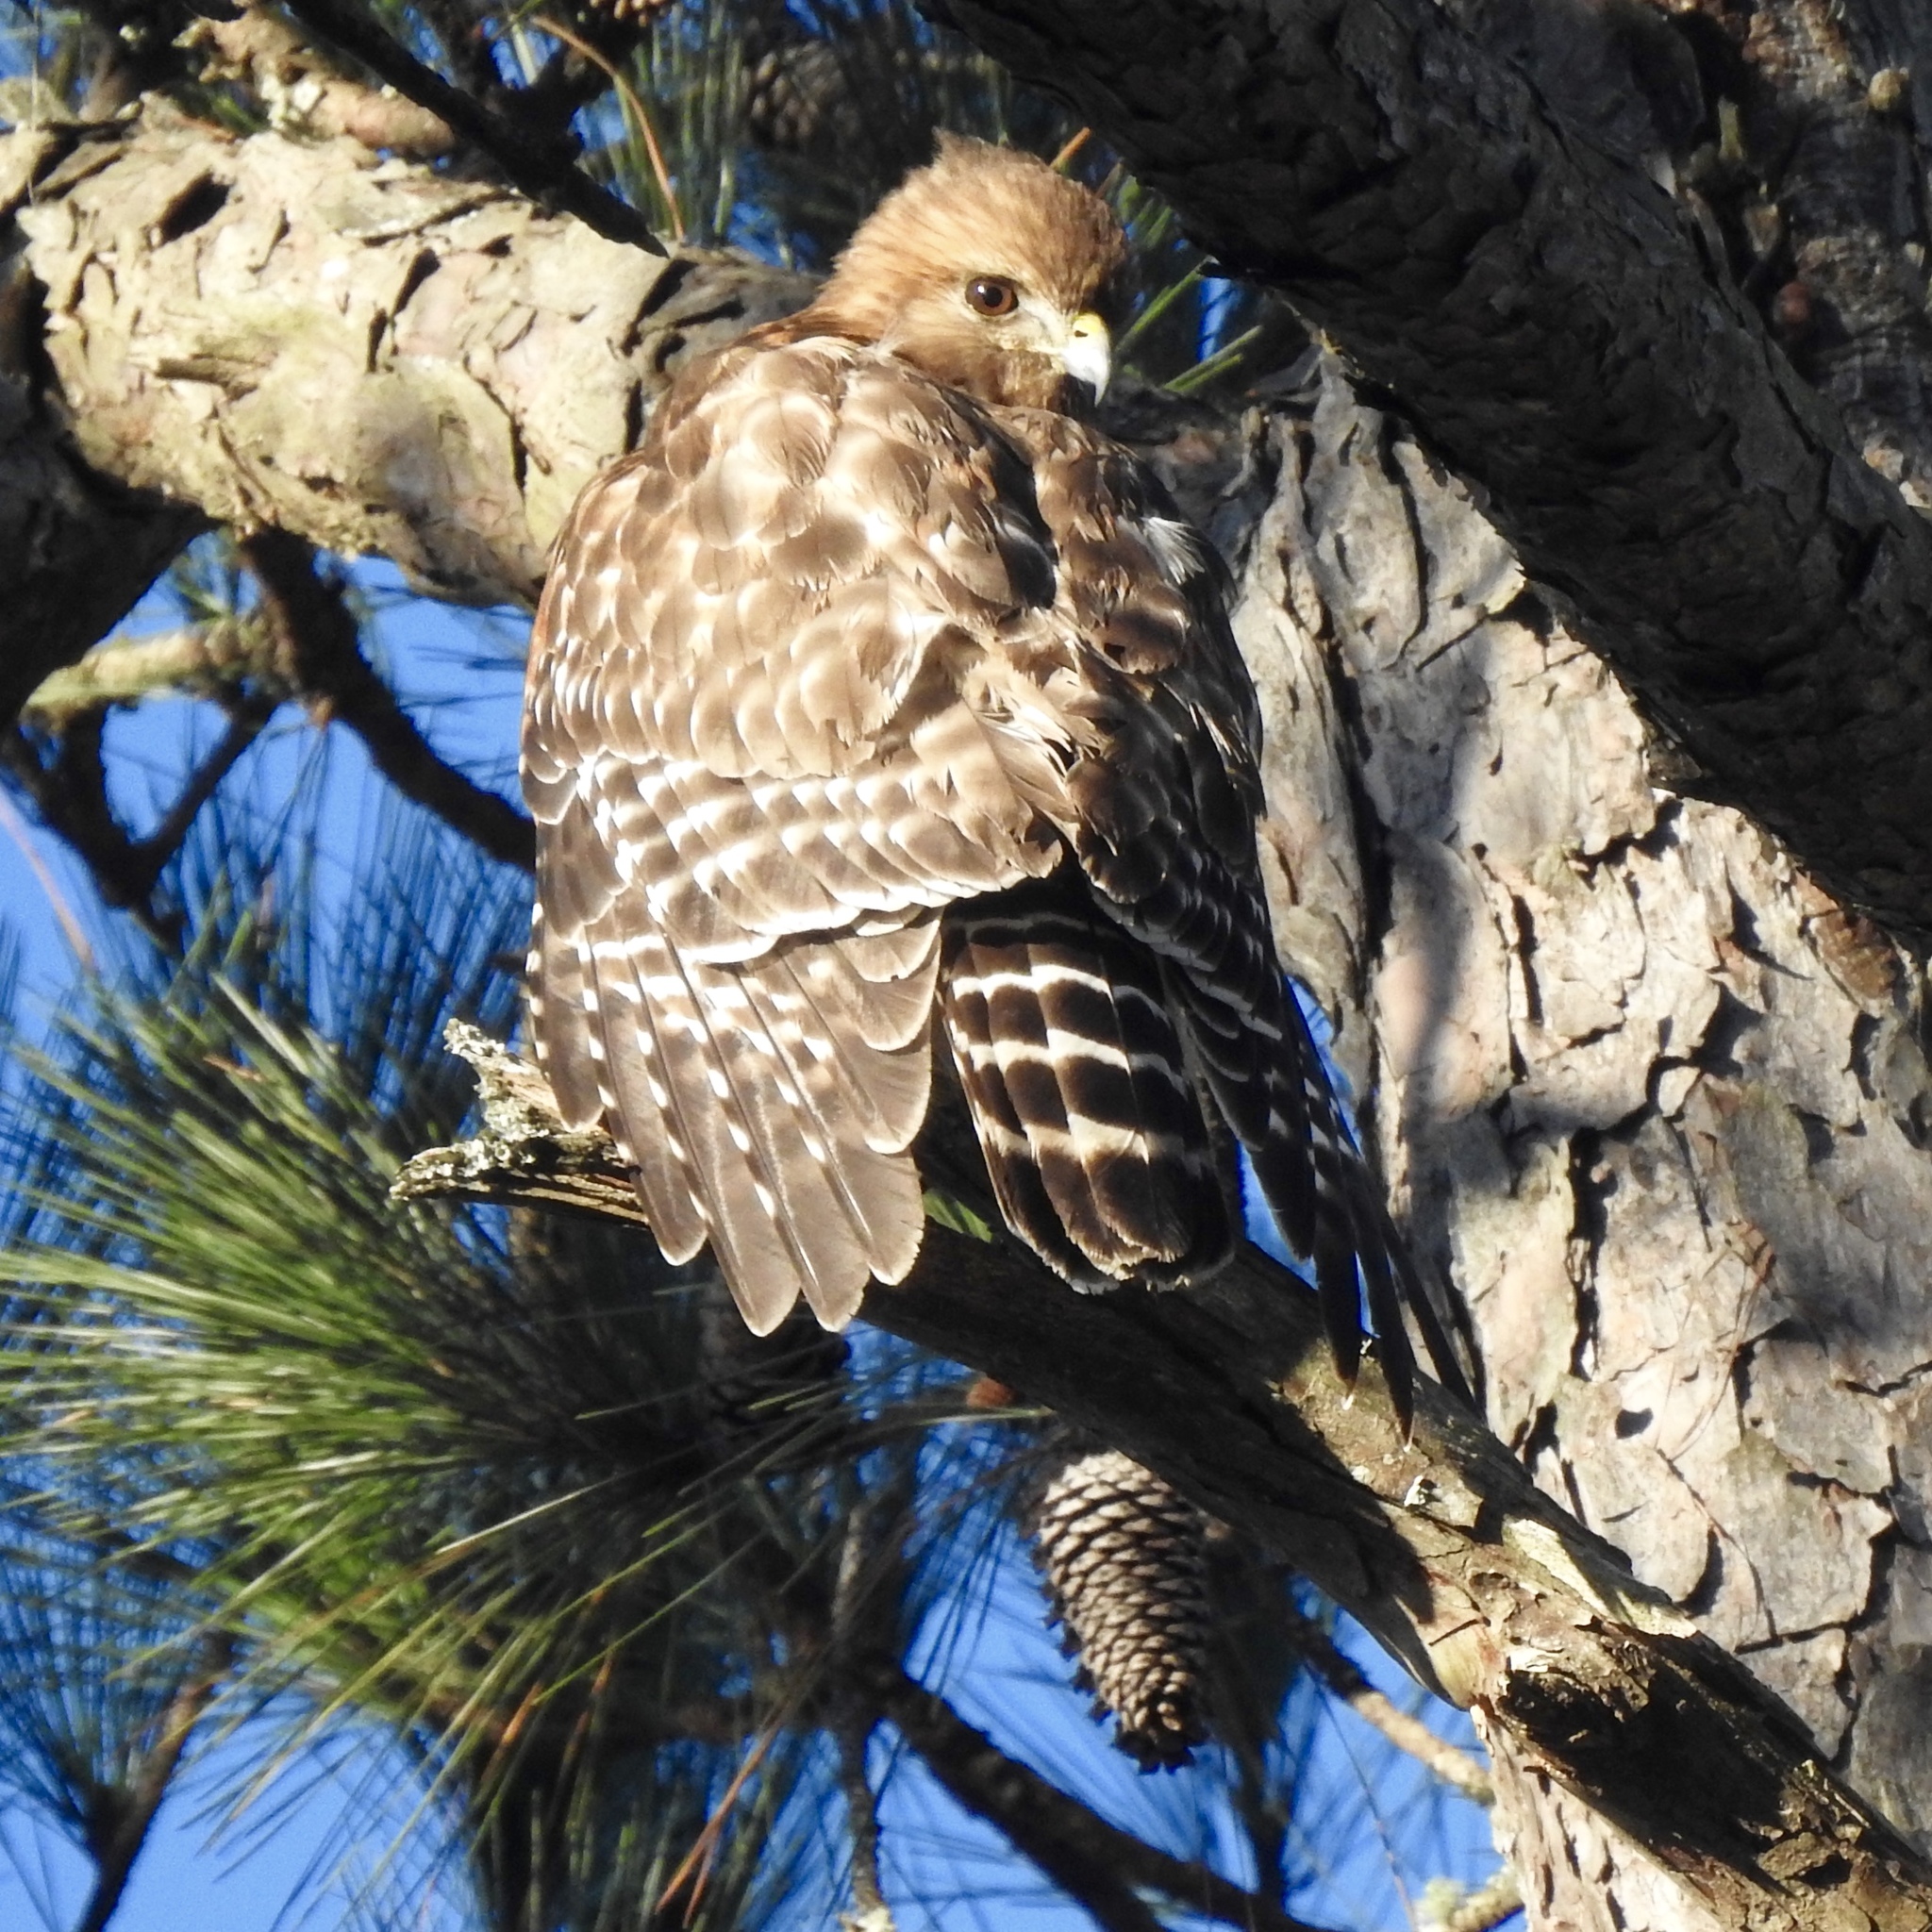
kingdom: Animalia
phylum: Chordata
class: Aves
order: Accipitriformes
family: Accipitridae
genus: Buteo
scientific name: Buteo lineatus
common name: Red-shouldered hawk
